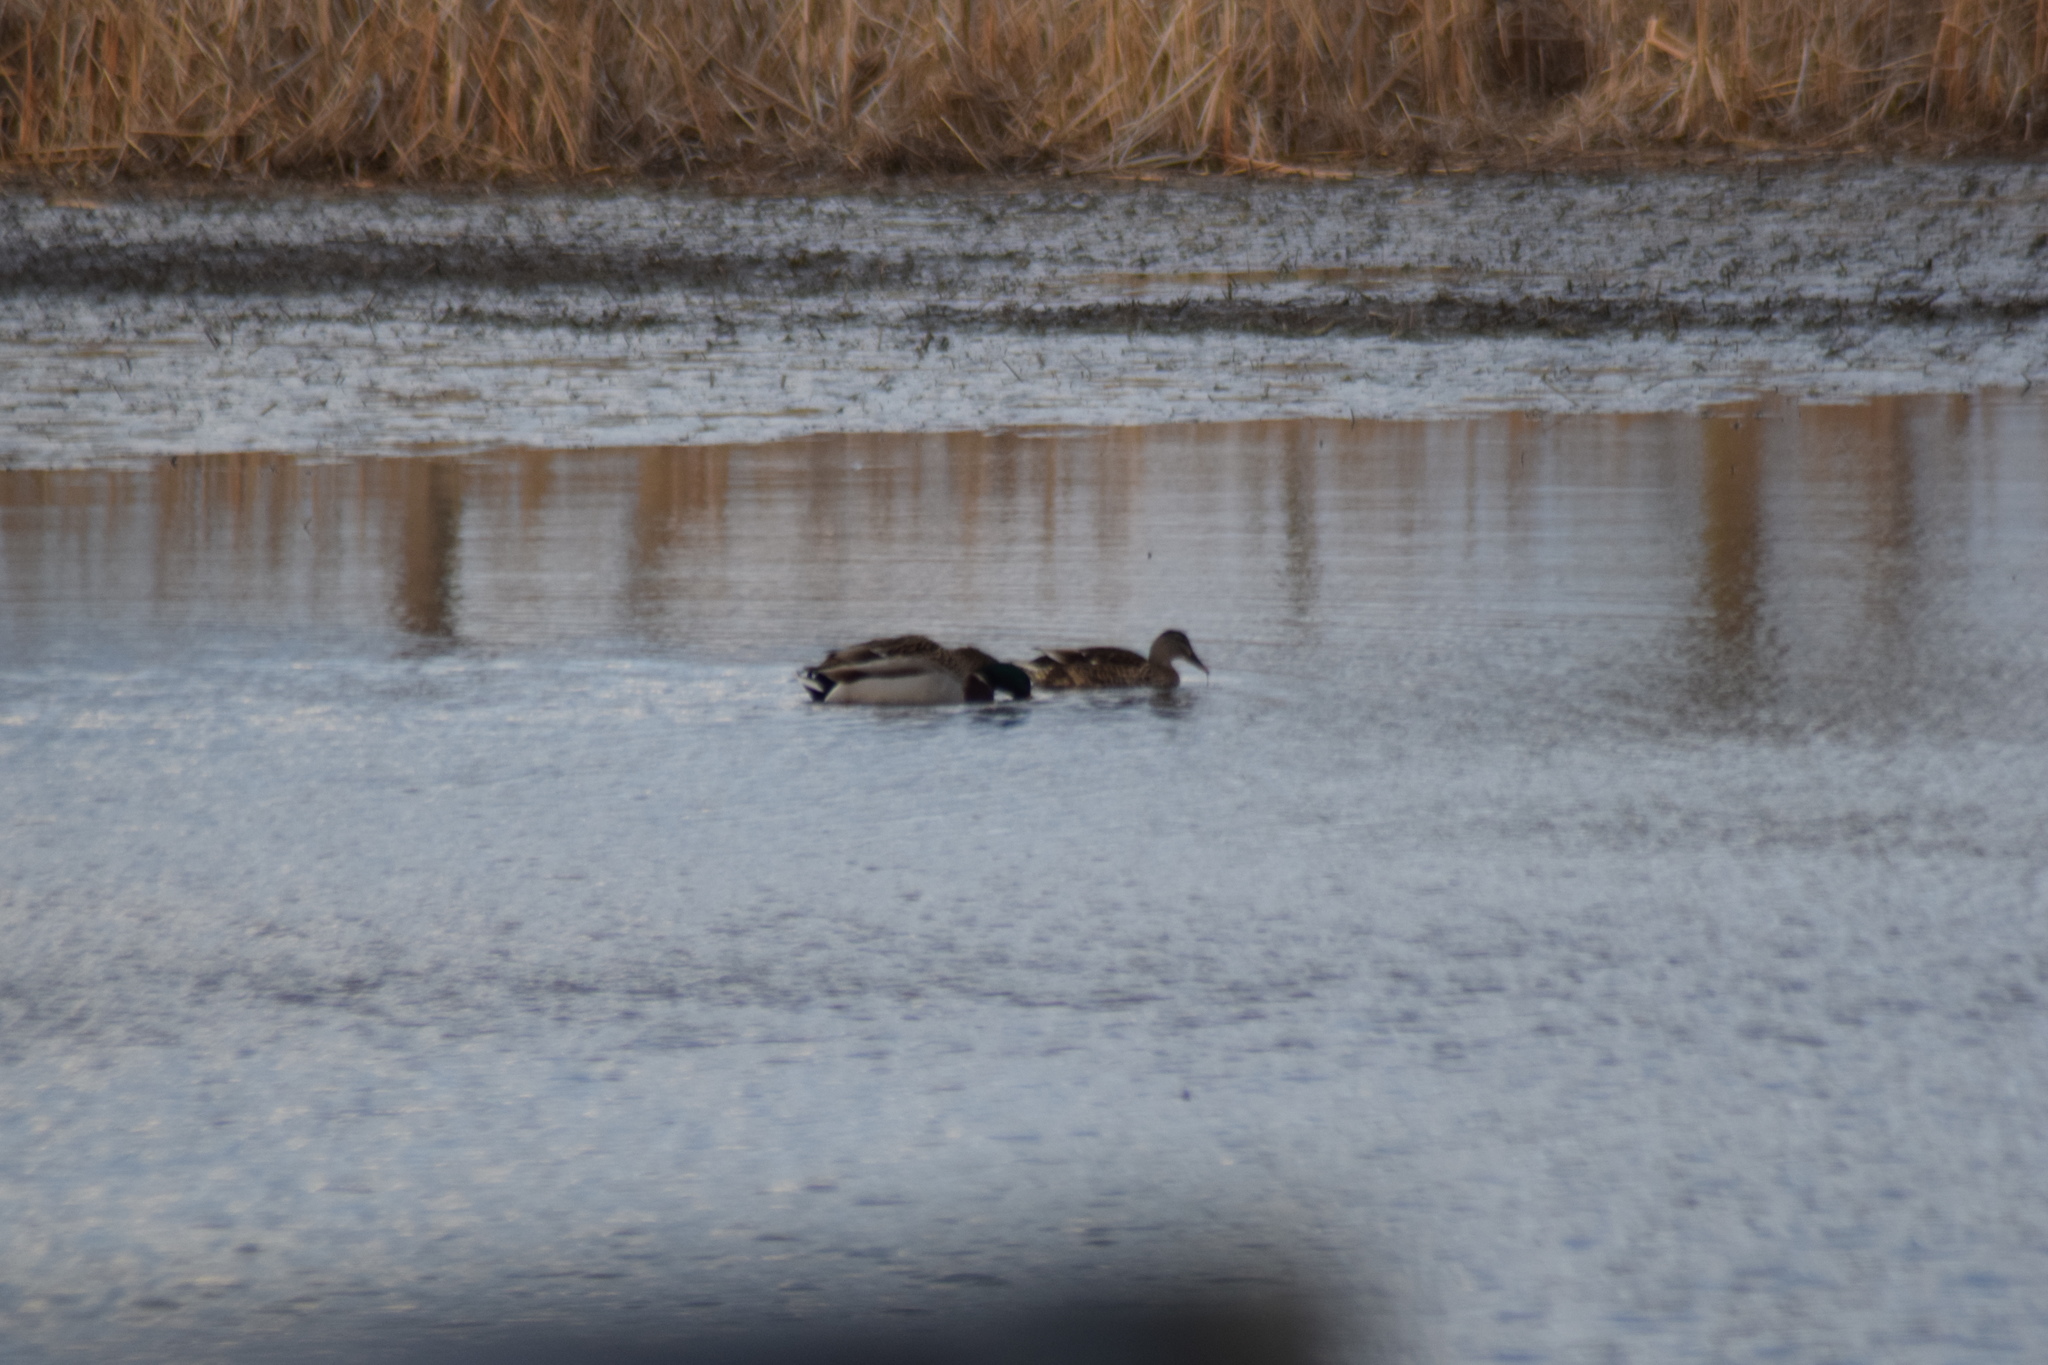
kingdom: Animalia
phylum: Chordata
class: Aves
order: Anseriformes
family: Anatidae
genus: Anas
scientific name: Anas platyrhynchos
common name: Mallard
